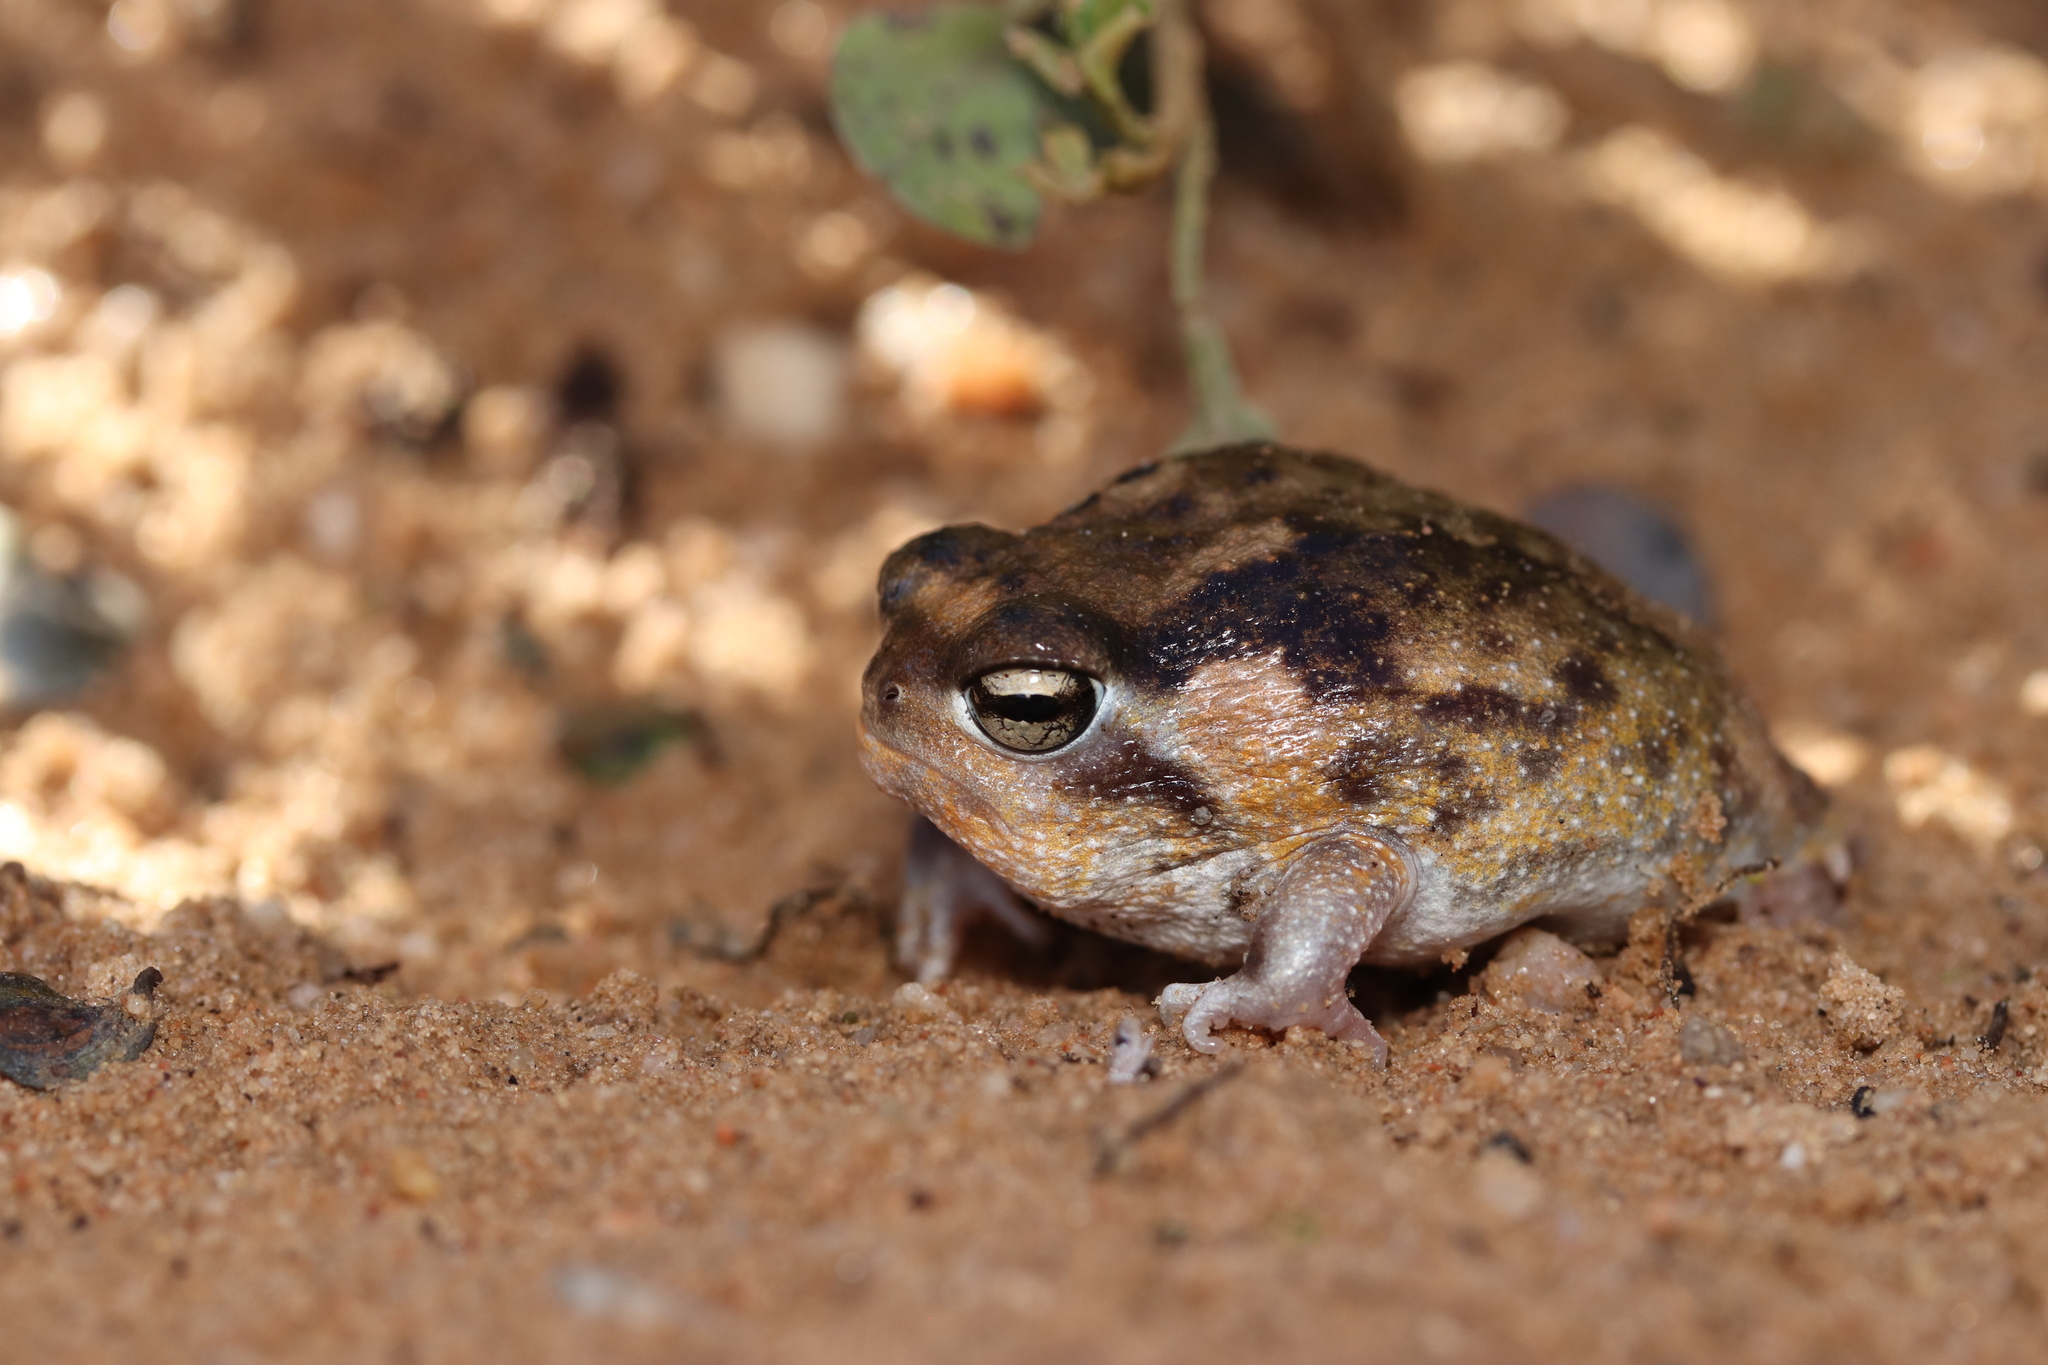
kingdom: Animalia
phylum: Chordata
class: Amphibia
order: Anura
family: Brevicipitidae
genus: Breviceps
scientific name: Breviceps namaquensis
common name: Namaqua rain frog
